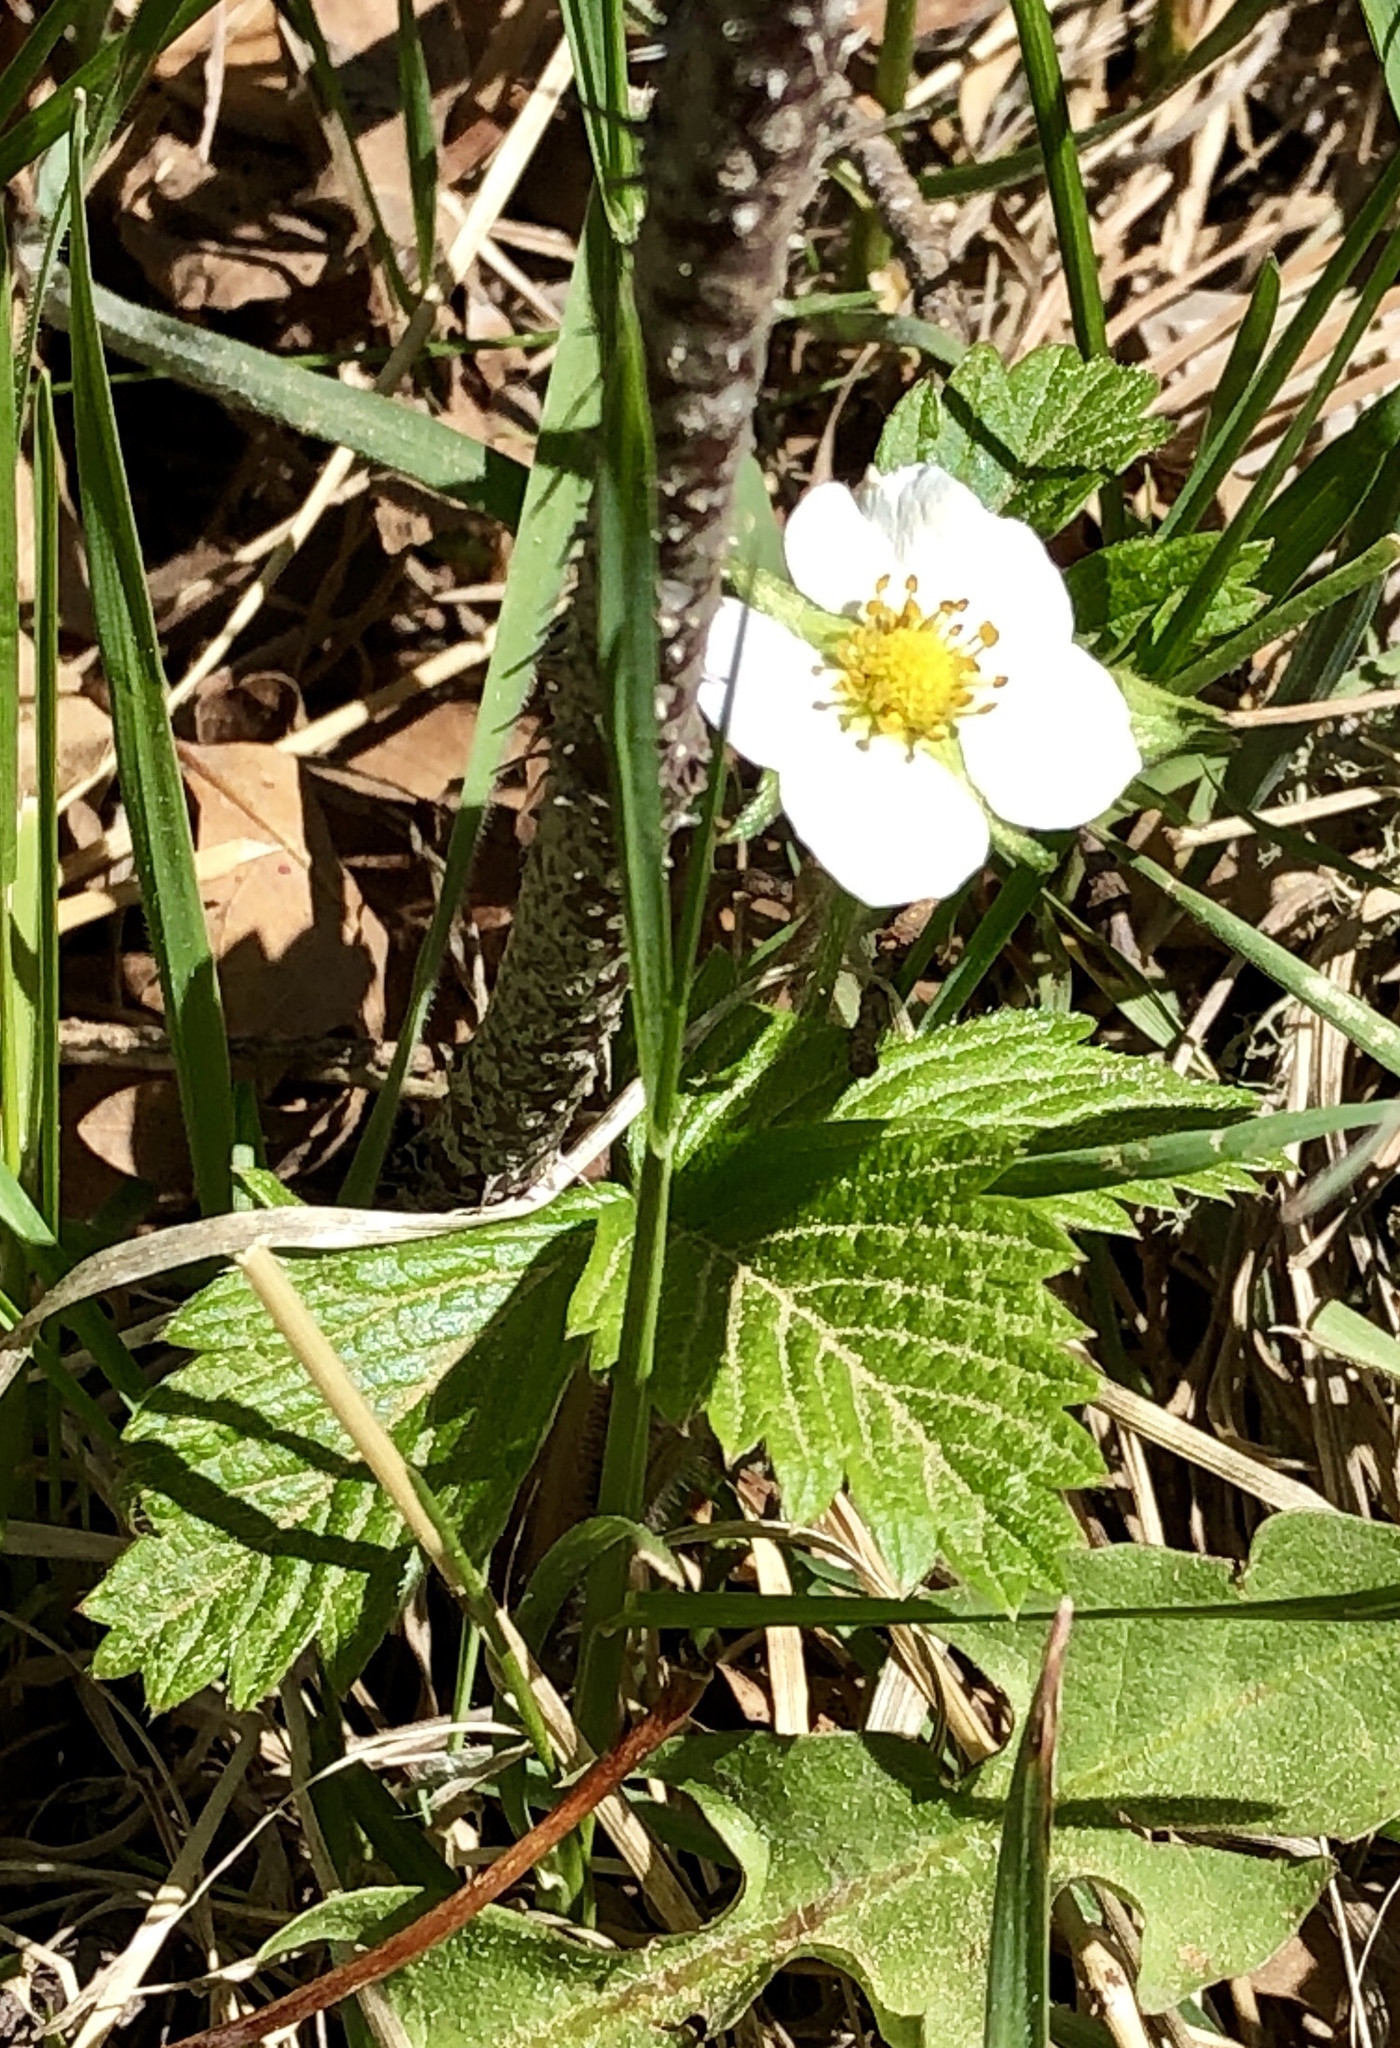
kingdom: Plantae
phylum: Tracheophyta
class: Magnoliopsida
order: Rosales
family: Rosaceae
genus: Fragaria
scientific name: Fragaria vesca
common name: Wild strawberry
